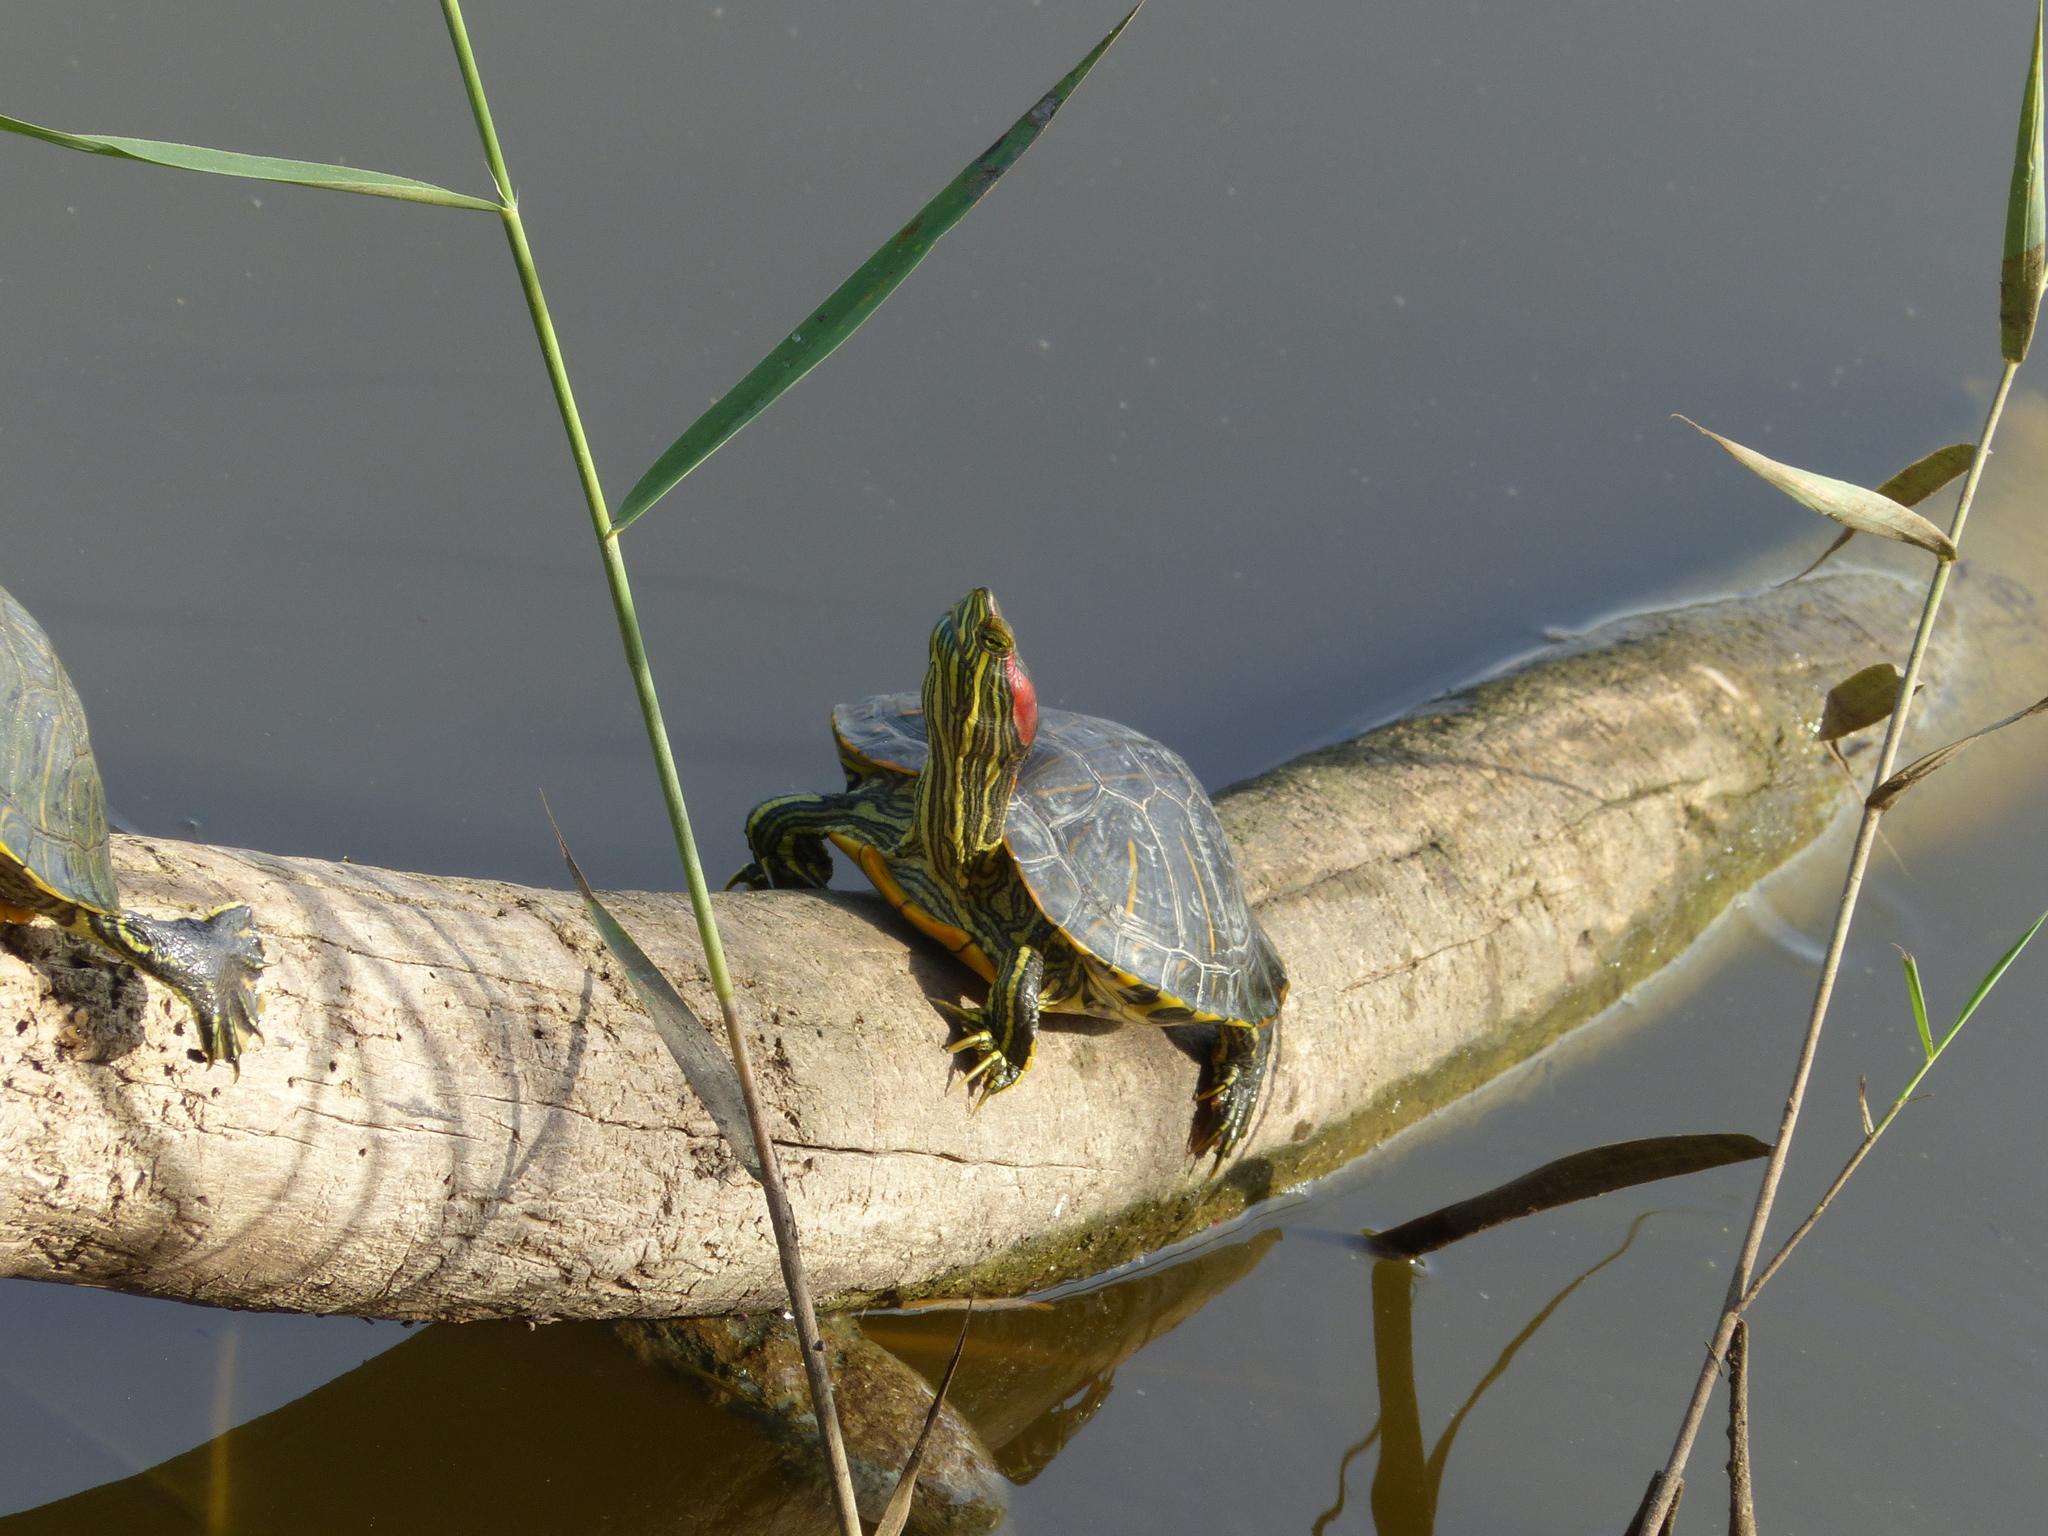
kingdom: Animalia
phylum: Chordata
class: Testudines
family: Emydidae
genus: Trachemys
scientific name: Trachemys scripta
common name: Slider
